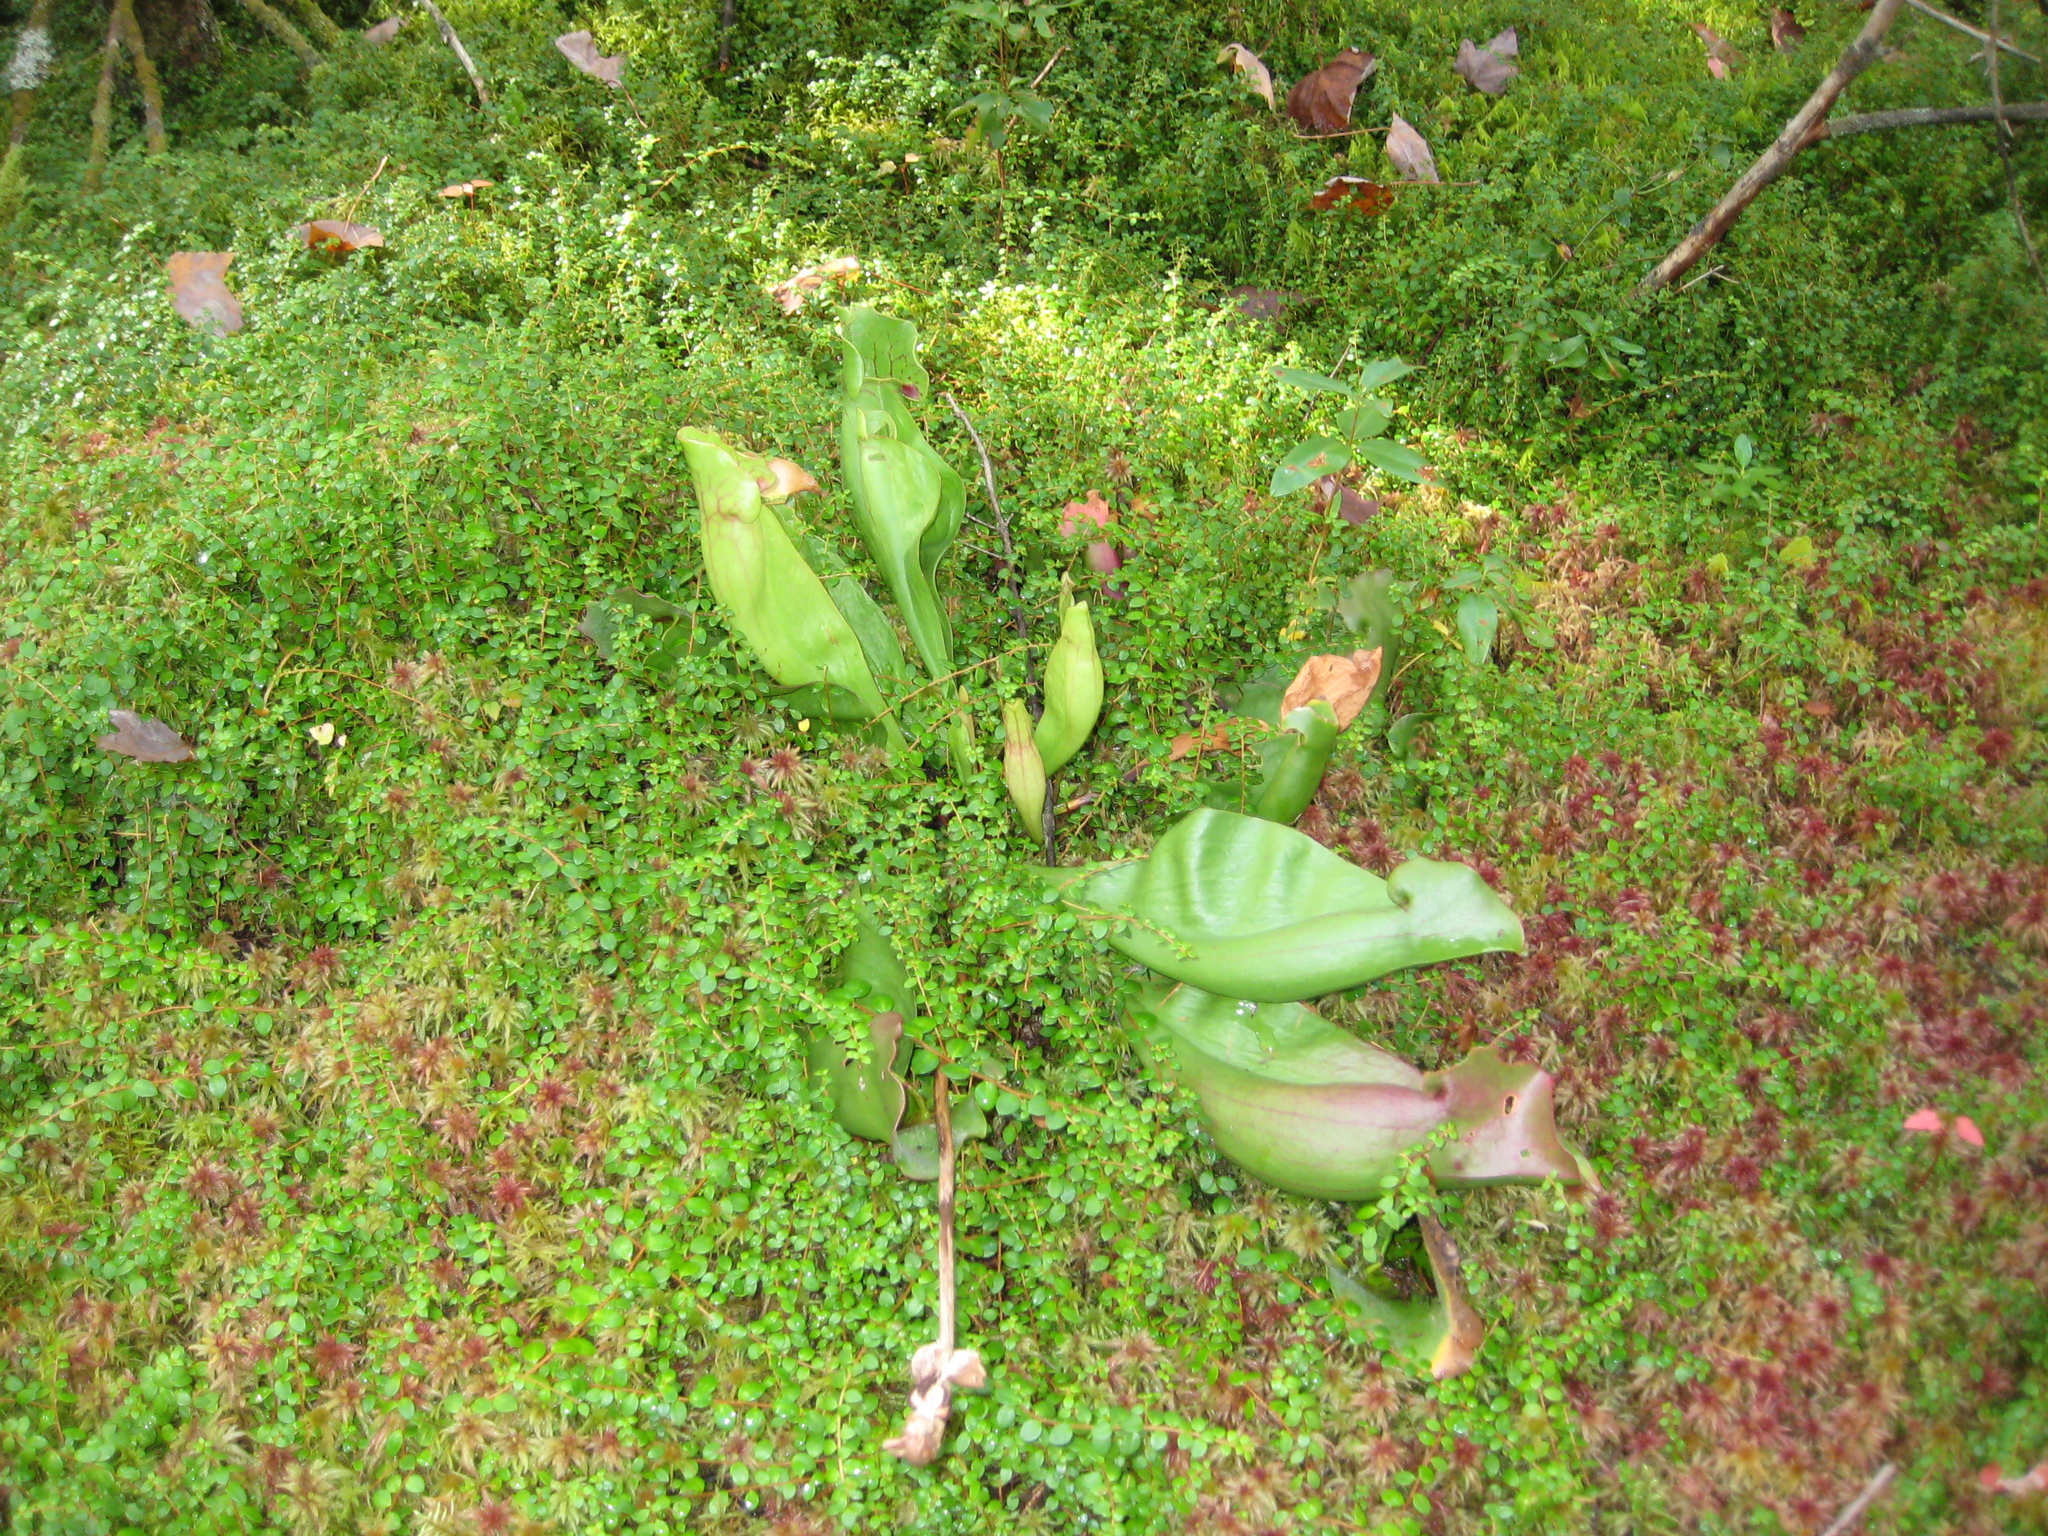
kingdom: Plantae
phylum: Tracheophyta
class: Magnoliopsida
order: Ericales
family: Sarraceniaceae
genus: Sarracenia
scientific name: Sarracenia purpurea
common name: Pitcherplant
